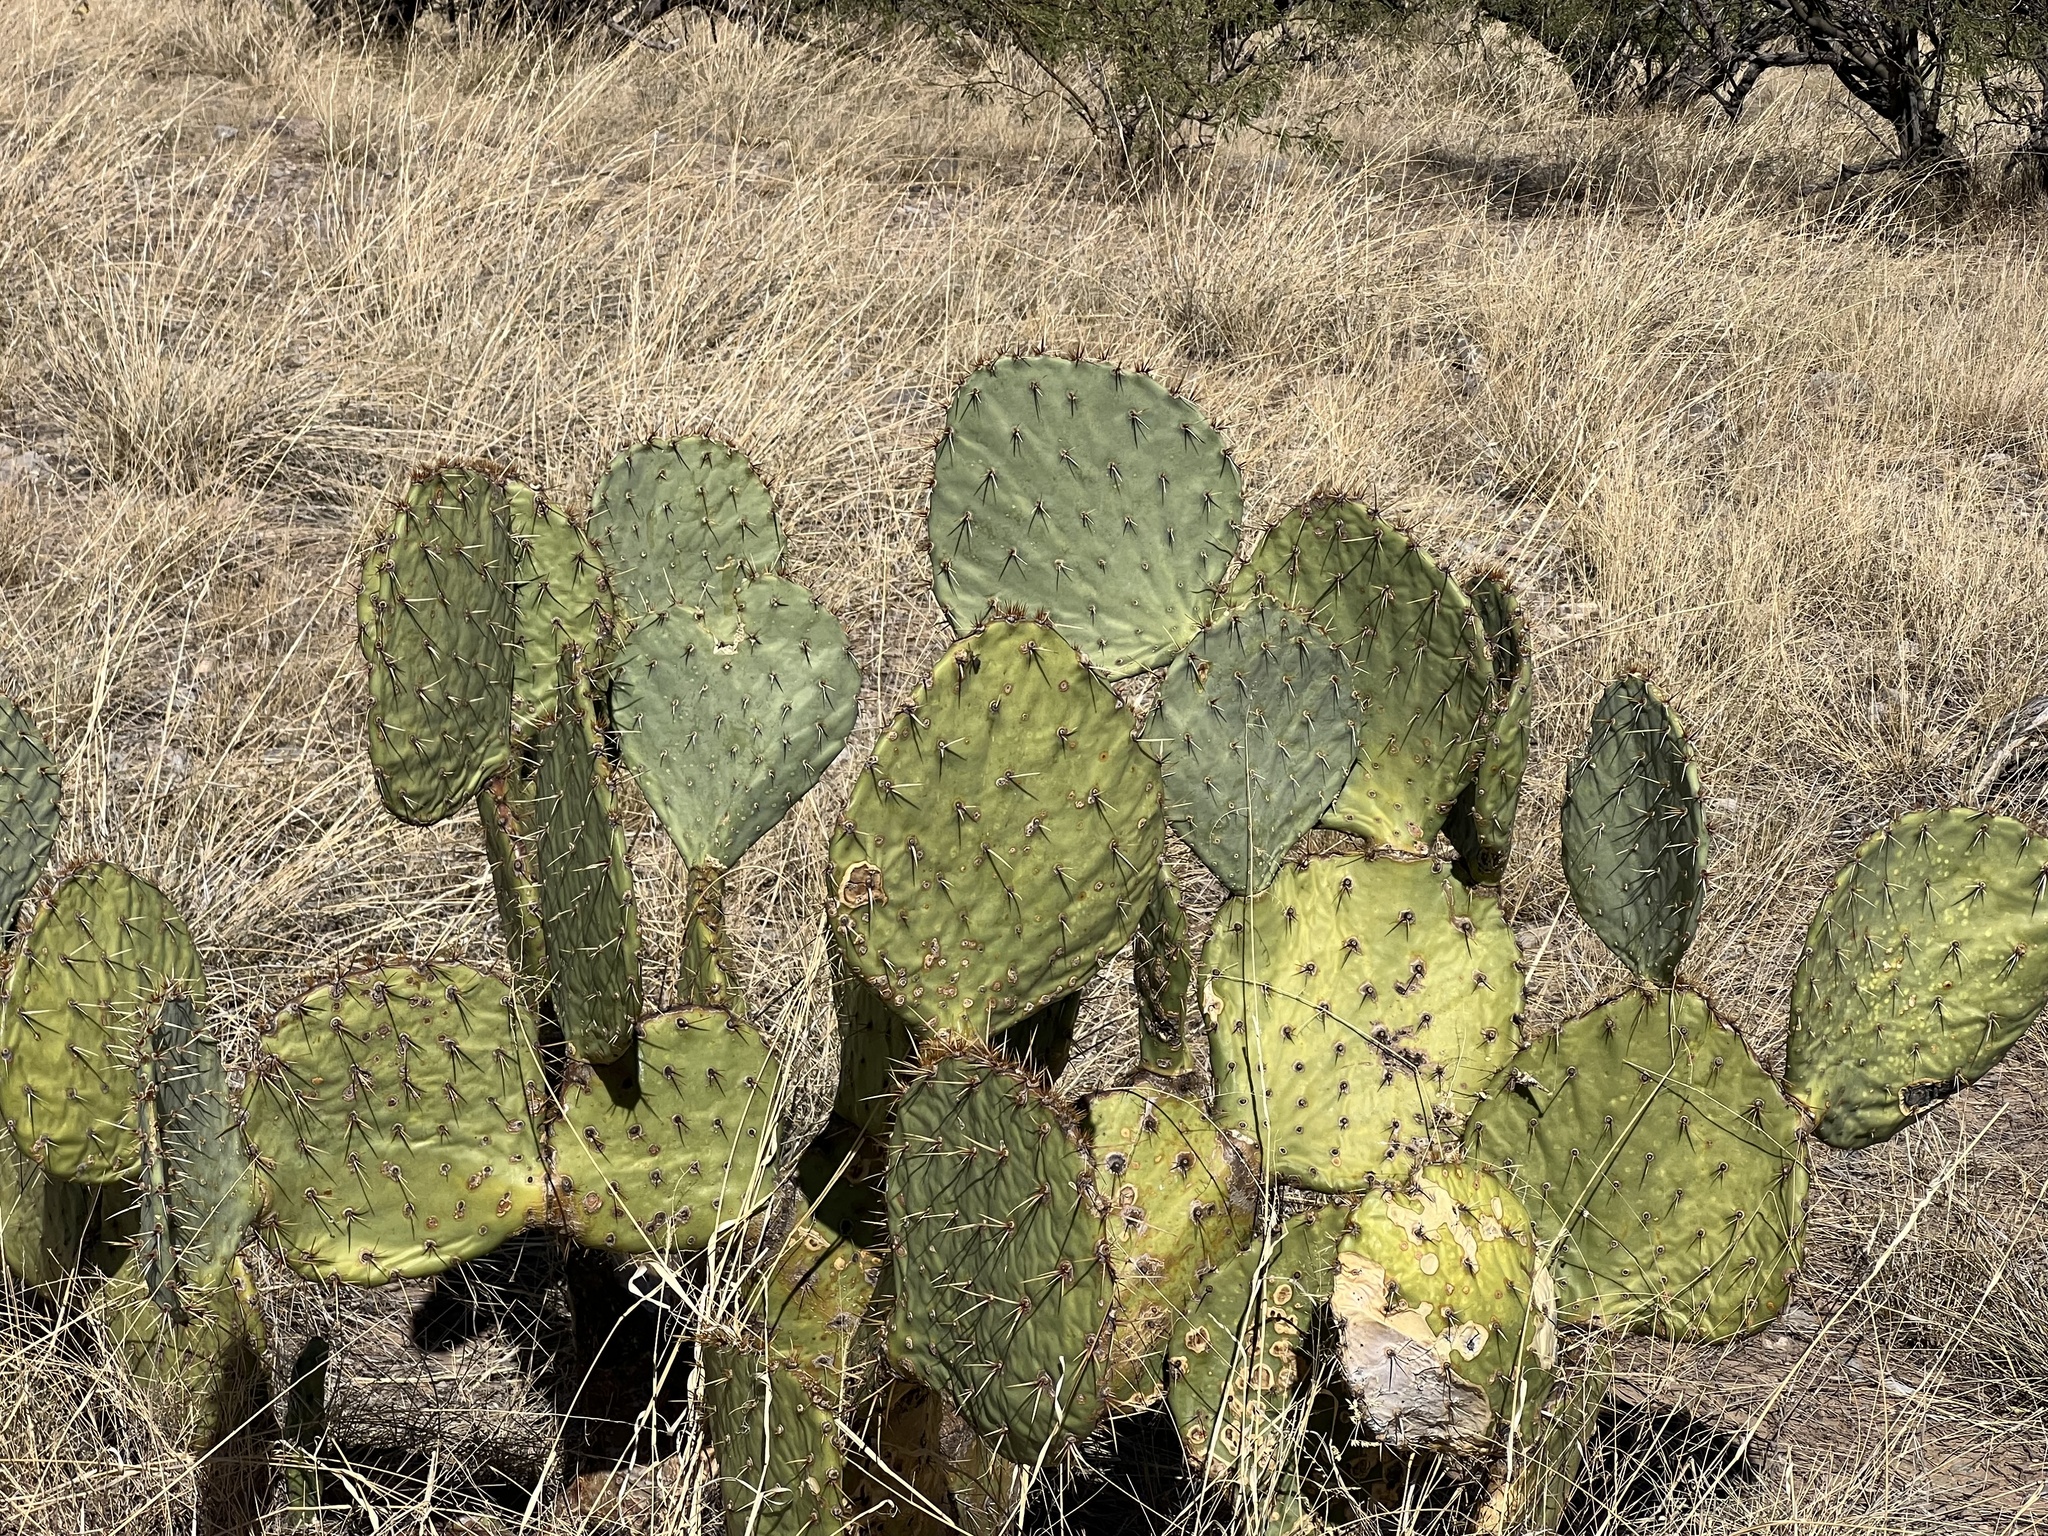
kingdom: Plantae
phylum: Tracheophyta
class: Magnoliopsida
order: Caryophyllales
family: Cactaceae
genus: Opuntia
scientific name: Opuntia engelmannii
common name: Cactus-apple
